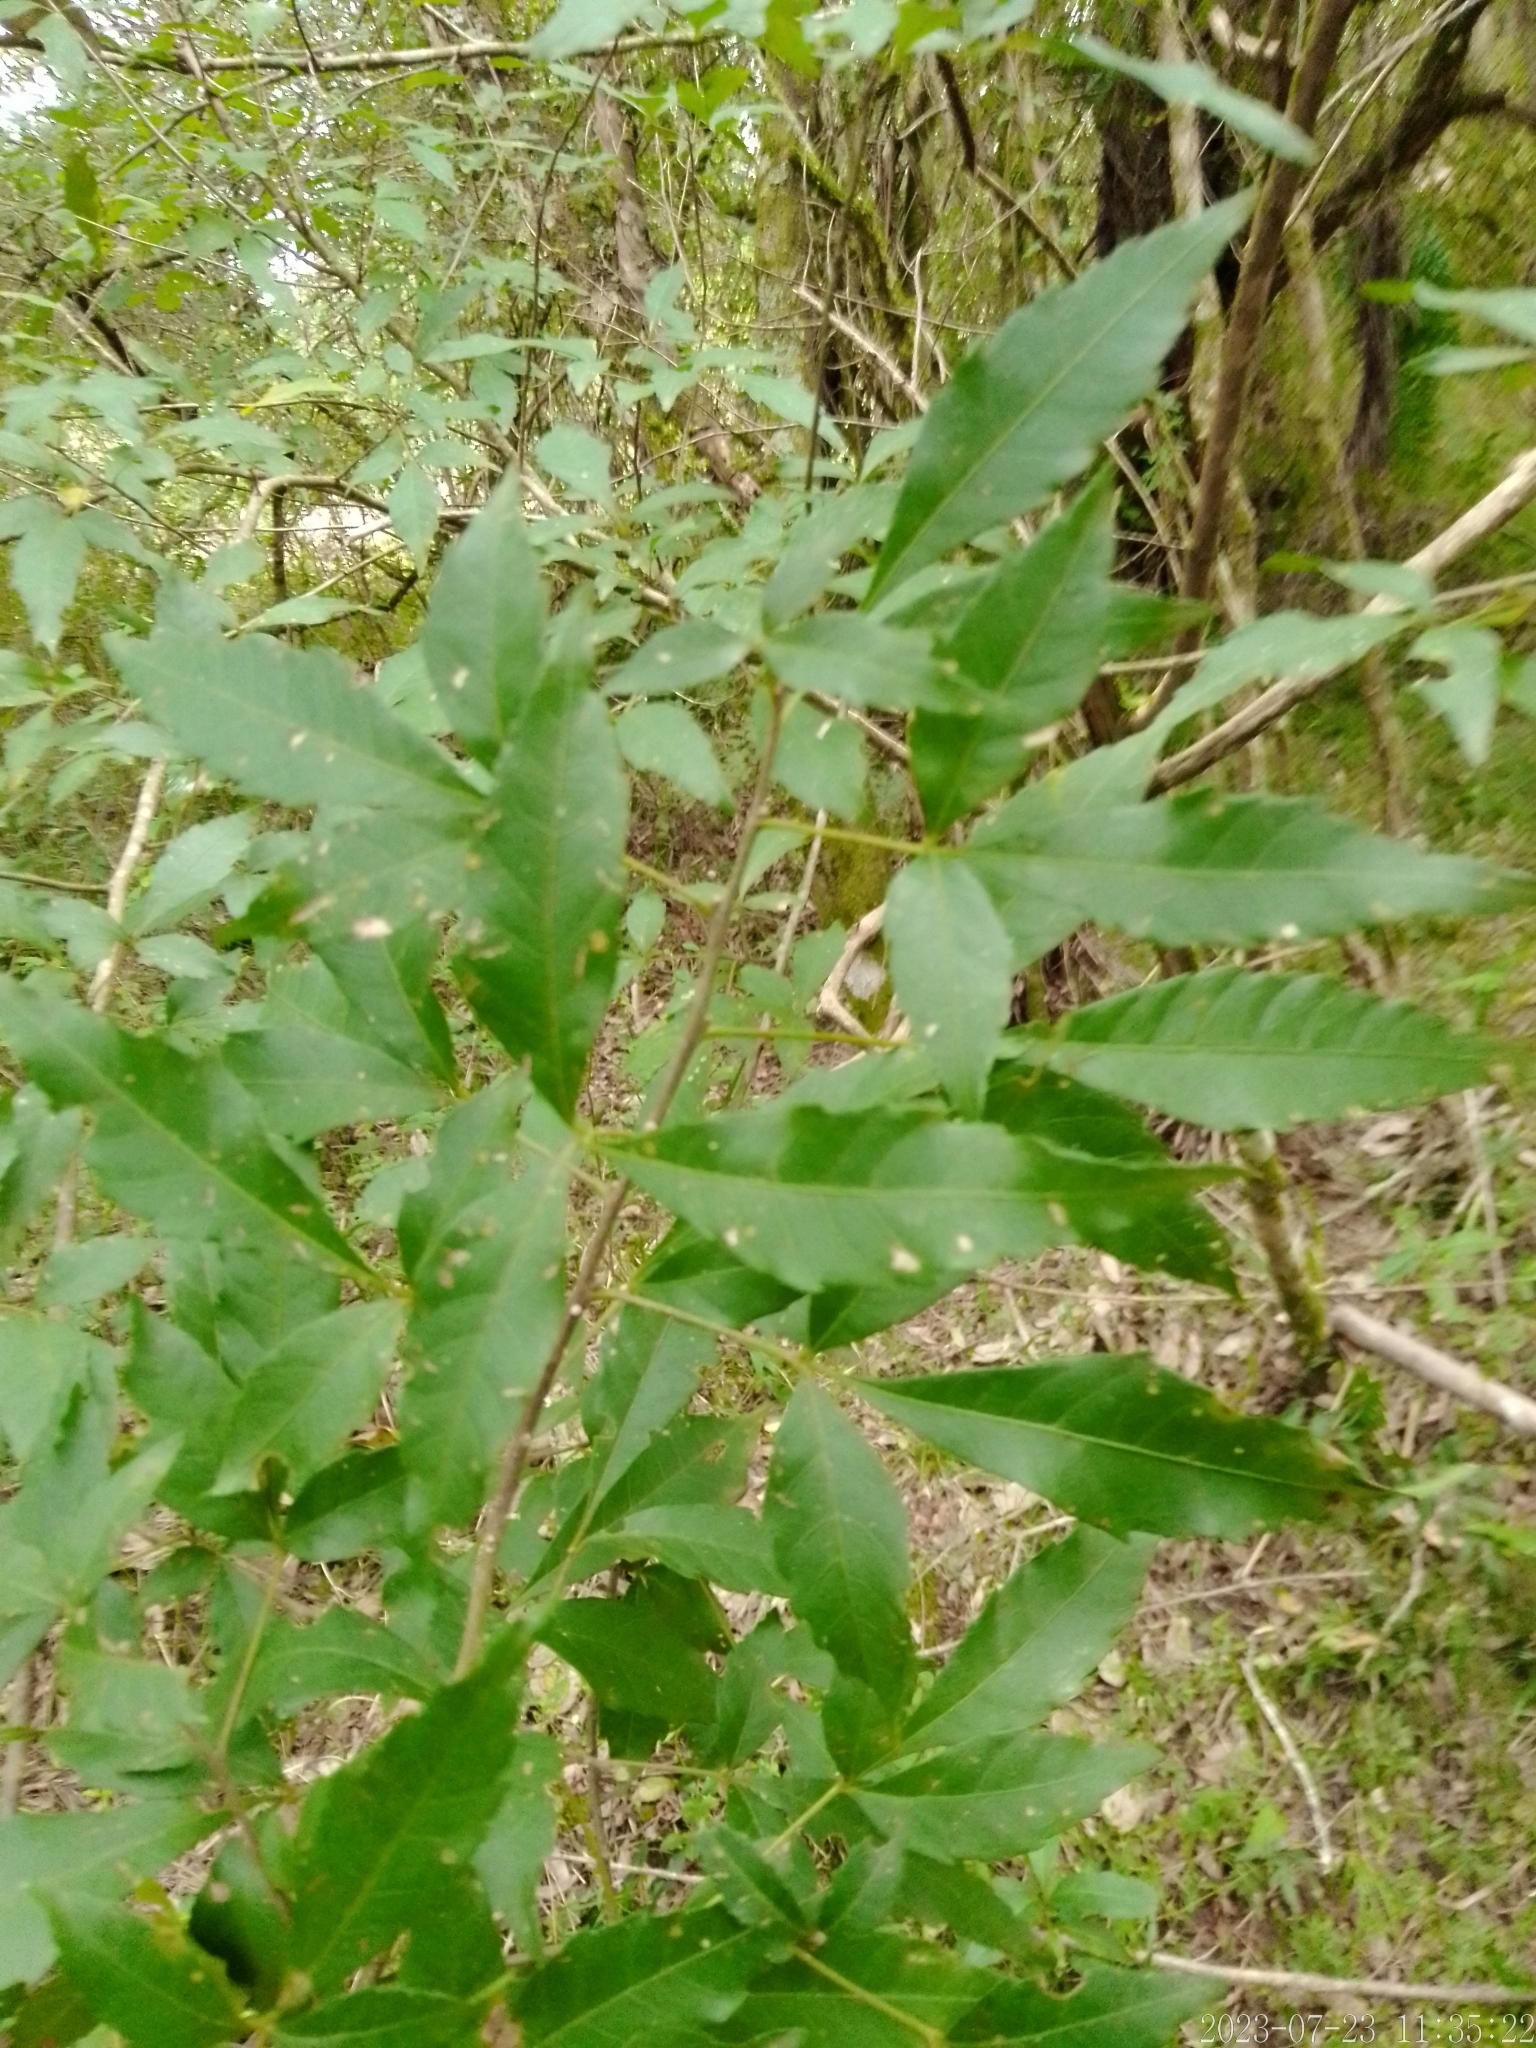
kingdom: Plantae
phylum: Tracheophyta
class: Magnoliopsida
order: Sapindales
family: Sapindaceae
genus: Allophylus
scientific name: Allophylus edulis
